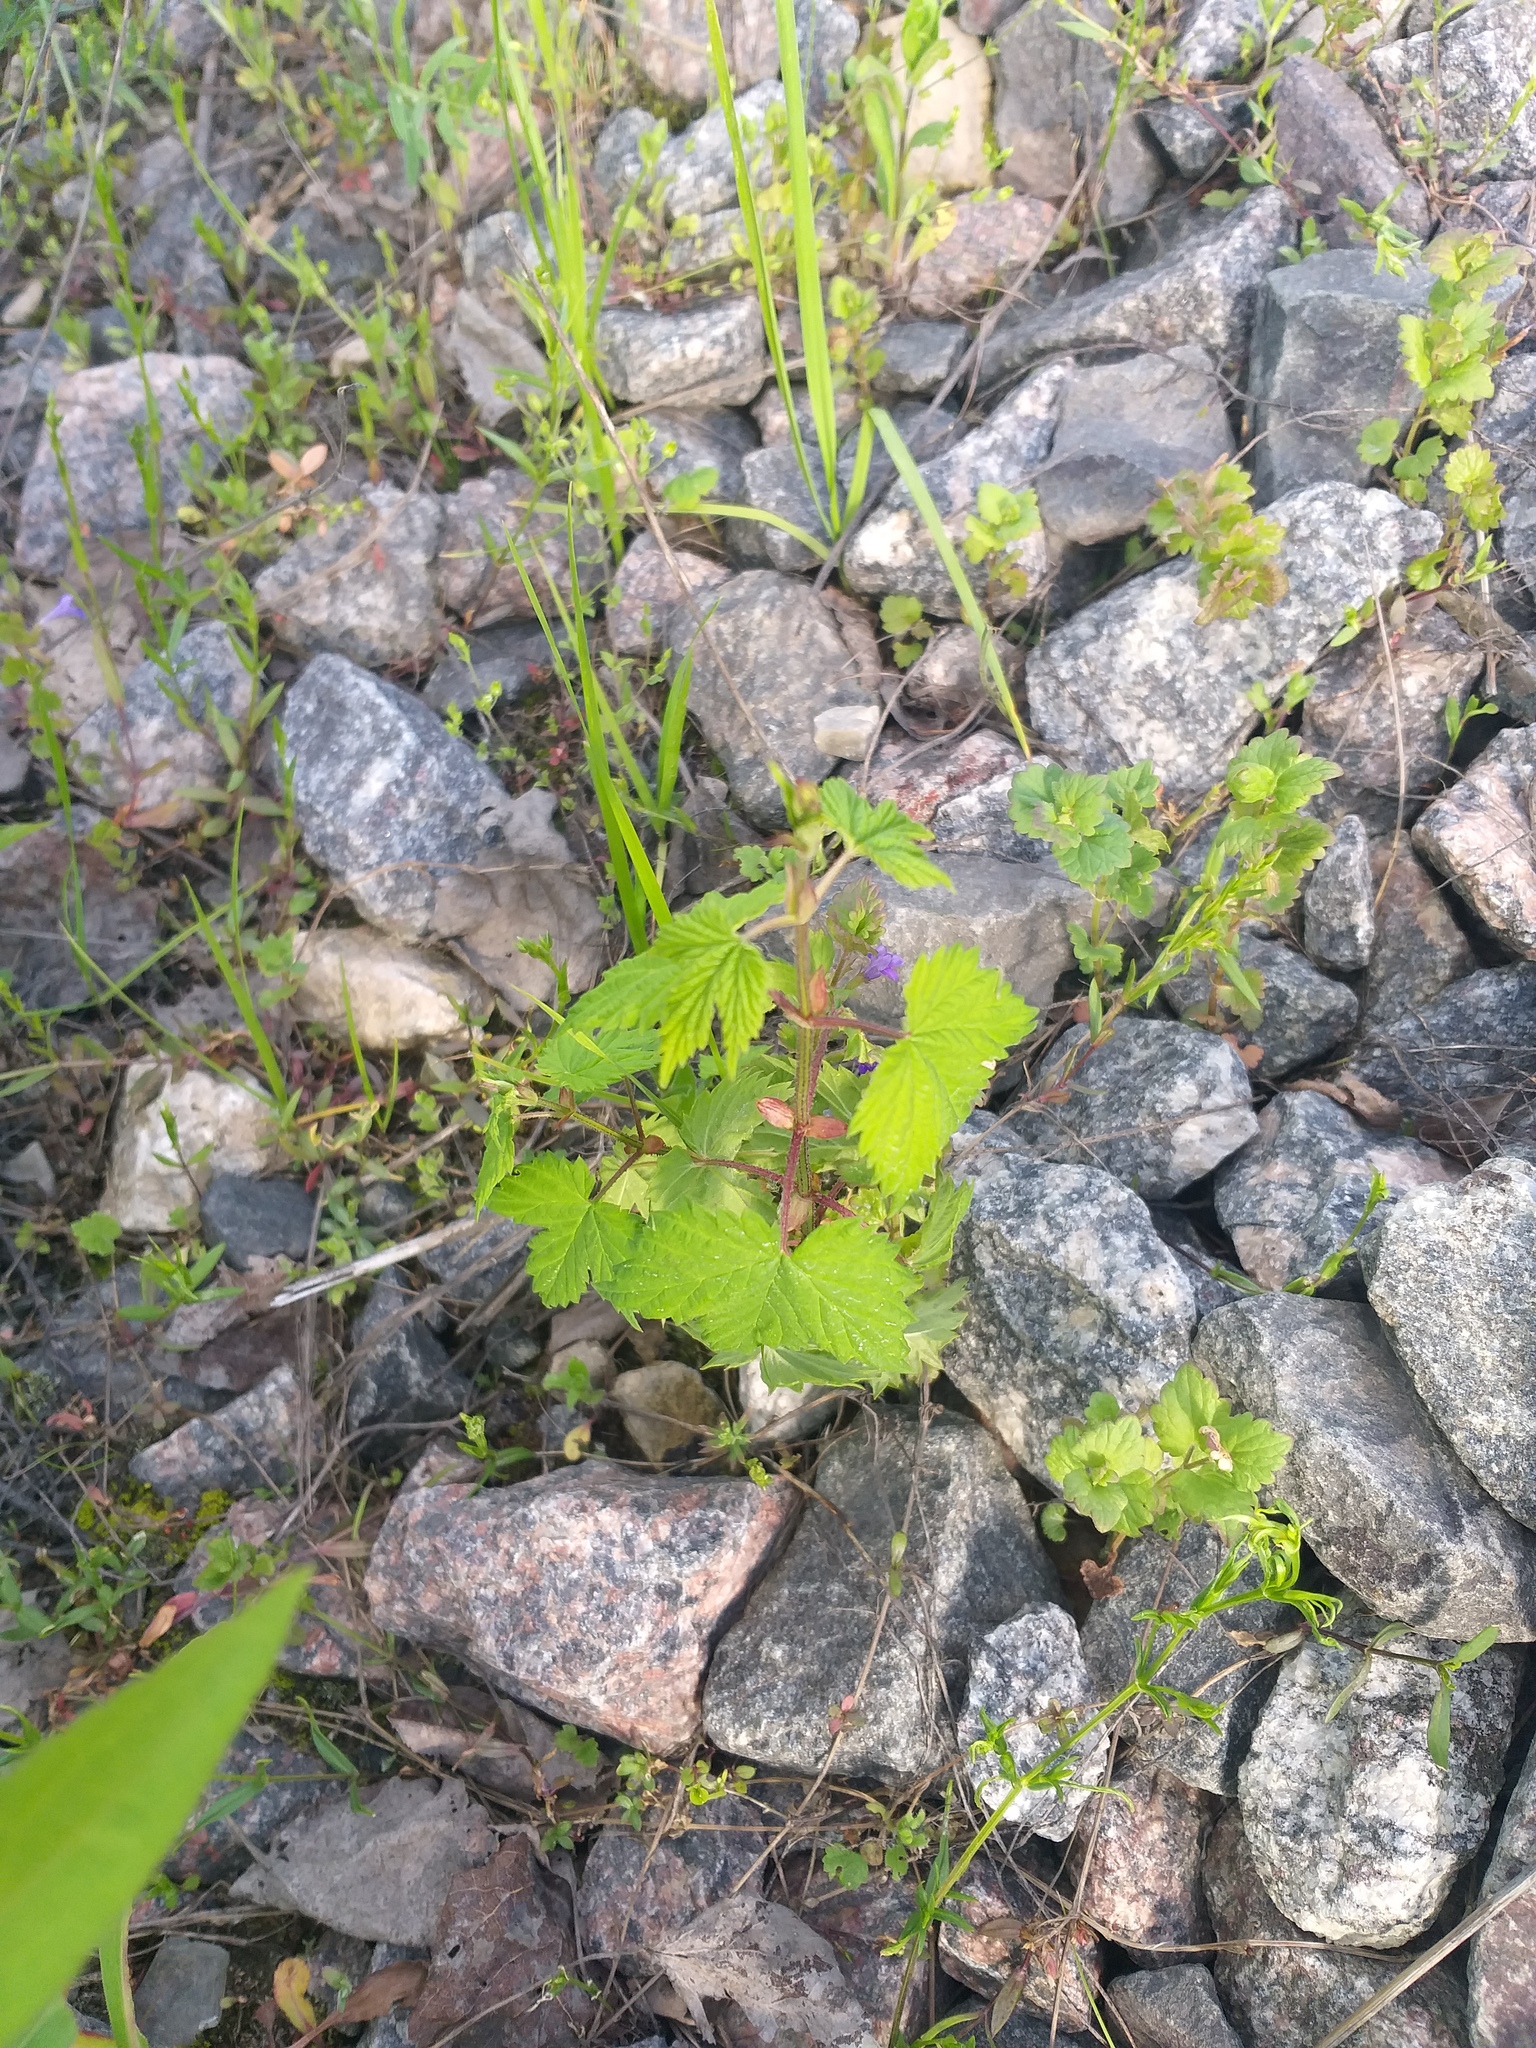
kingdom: Plantae
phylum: Tracheophyta
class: Magnoliopsida
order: Rosales
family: Cannabaceae
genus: Humulus
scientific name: Humulus lupulus
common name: Hop
